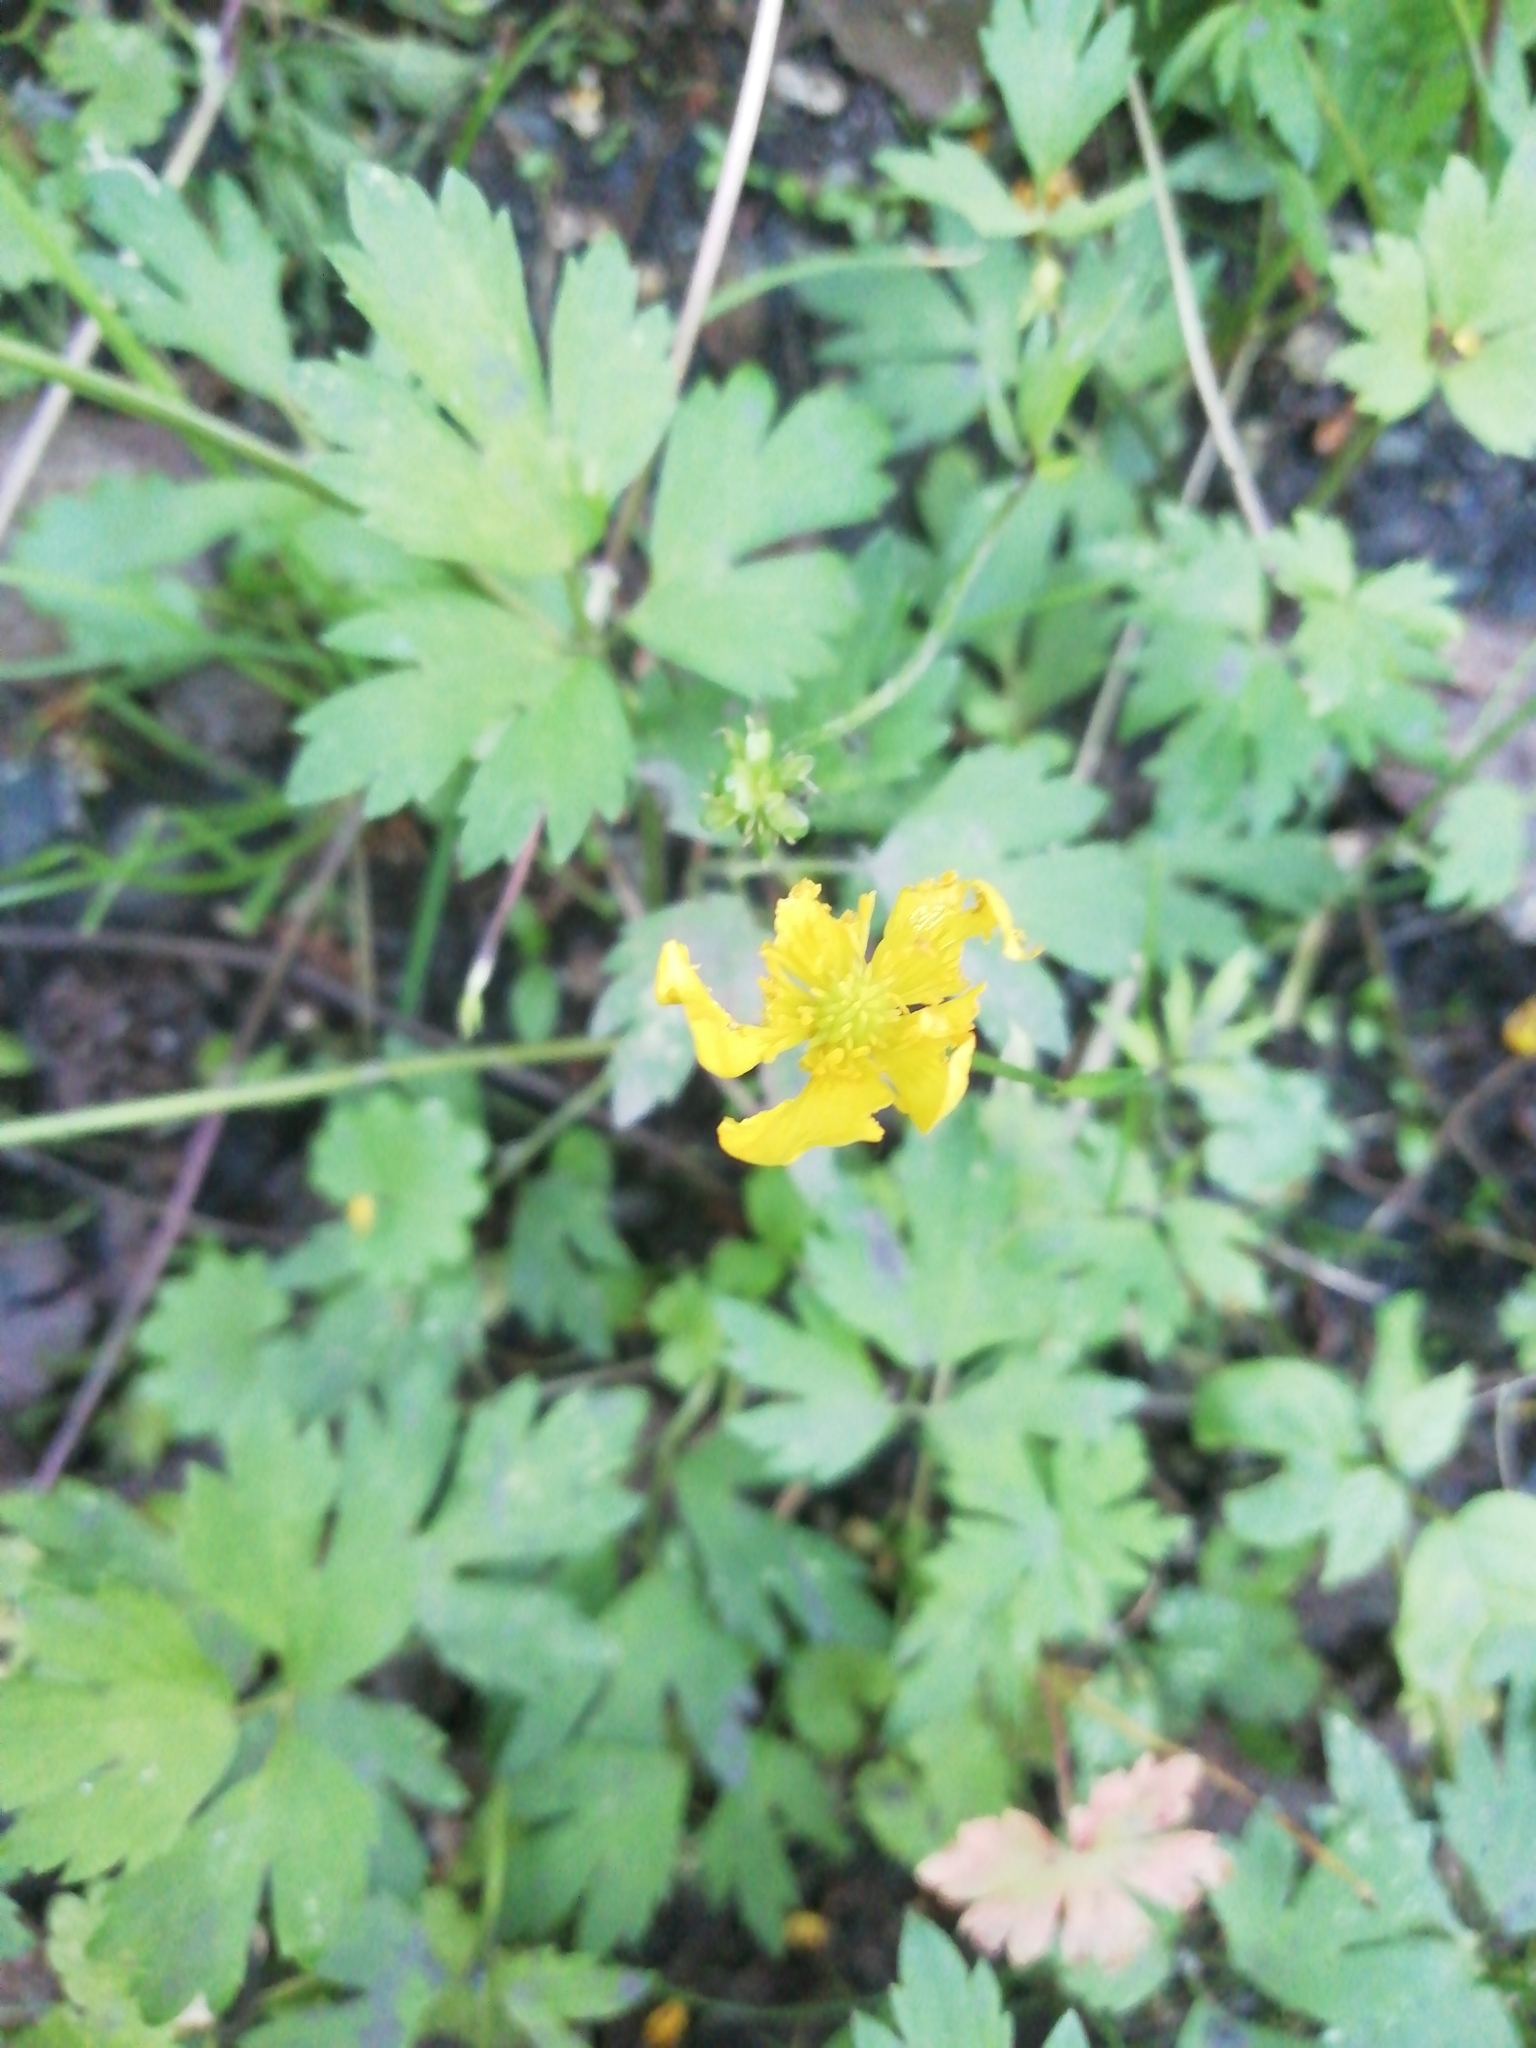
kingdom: Plantae
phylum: Tracheophyta
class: Magnoliopsida
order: Ranunculales
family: Ranunculaceae
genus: Ranunculus
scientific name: Ranunculus repens
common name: Creeping buttercup
